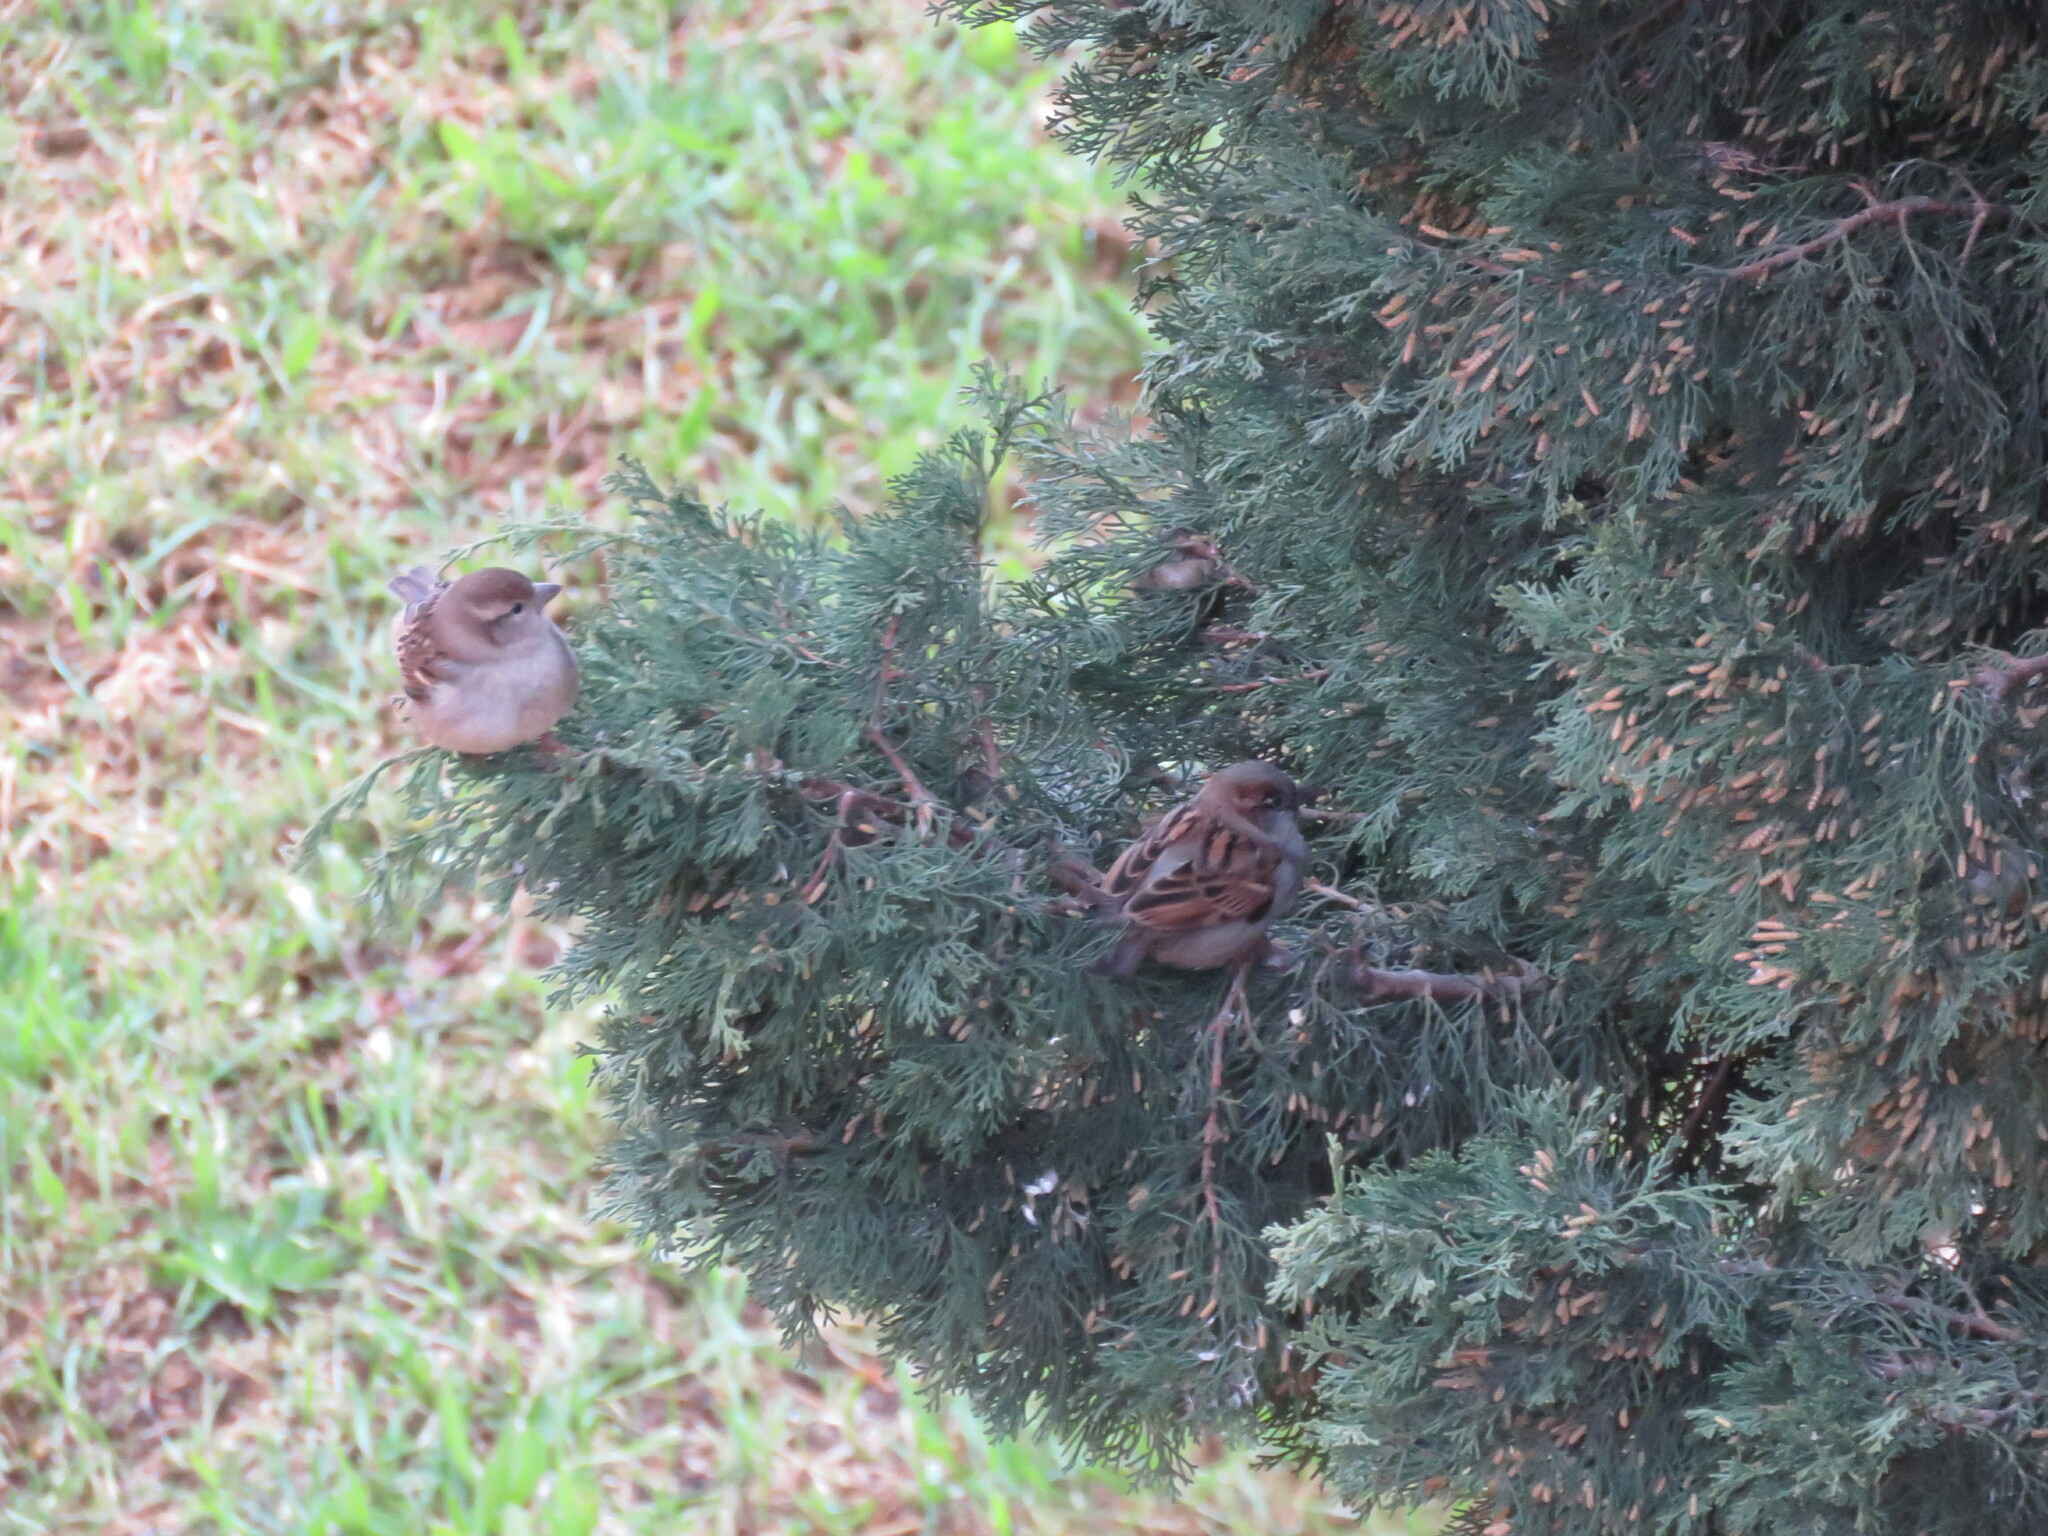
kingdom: Animalia
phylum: Chordata
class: Aves
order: Passeriformes
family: Passeridae
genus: Passer
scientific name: Passer domesticus
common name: House sparrow
